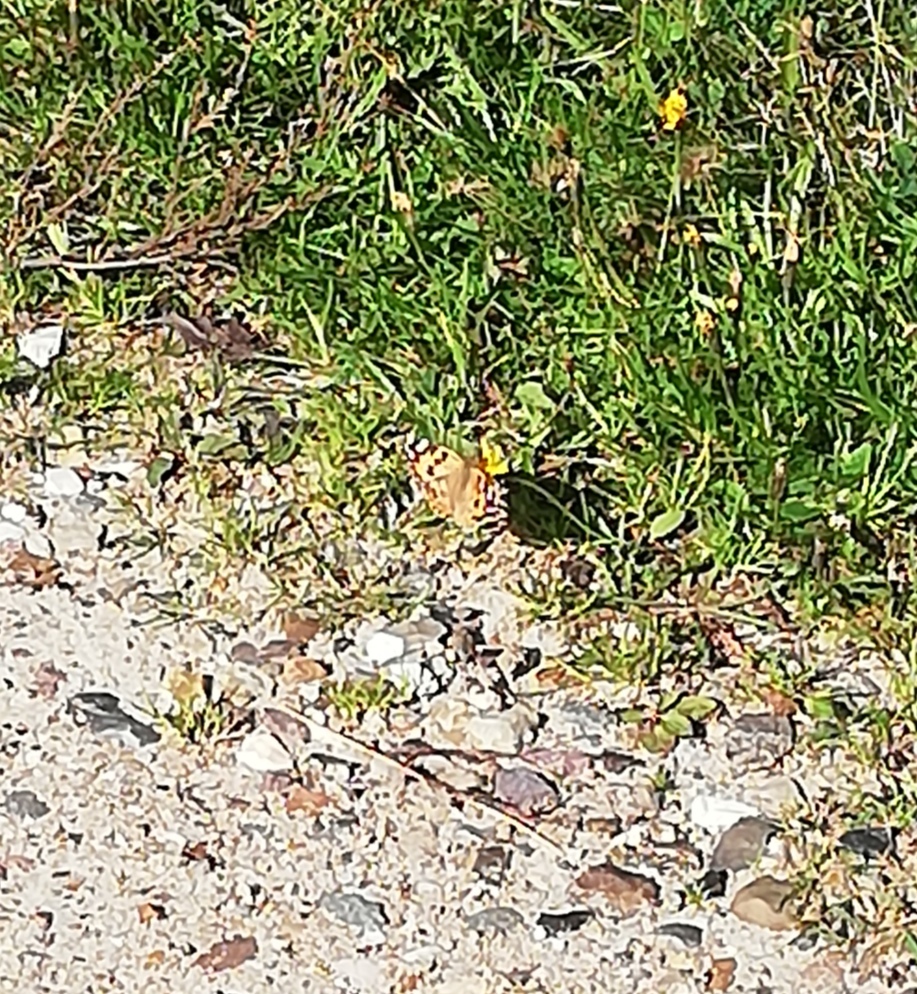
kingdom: Animalia
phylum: Arthropoda
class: Insecta
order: Lepidoptera
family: Nymphalidae
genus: Vanessa
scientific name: Vanessa cardui
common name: Painted lady
